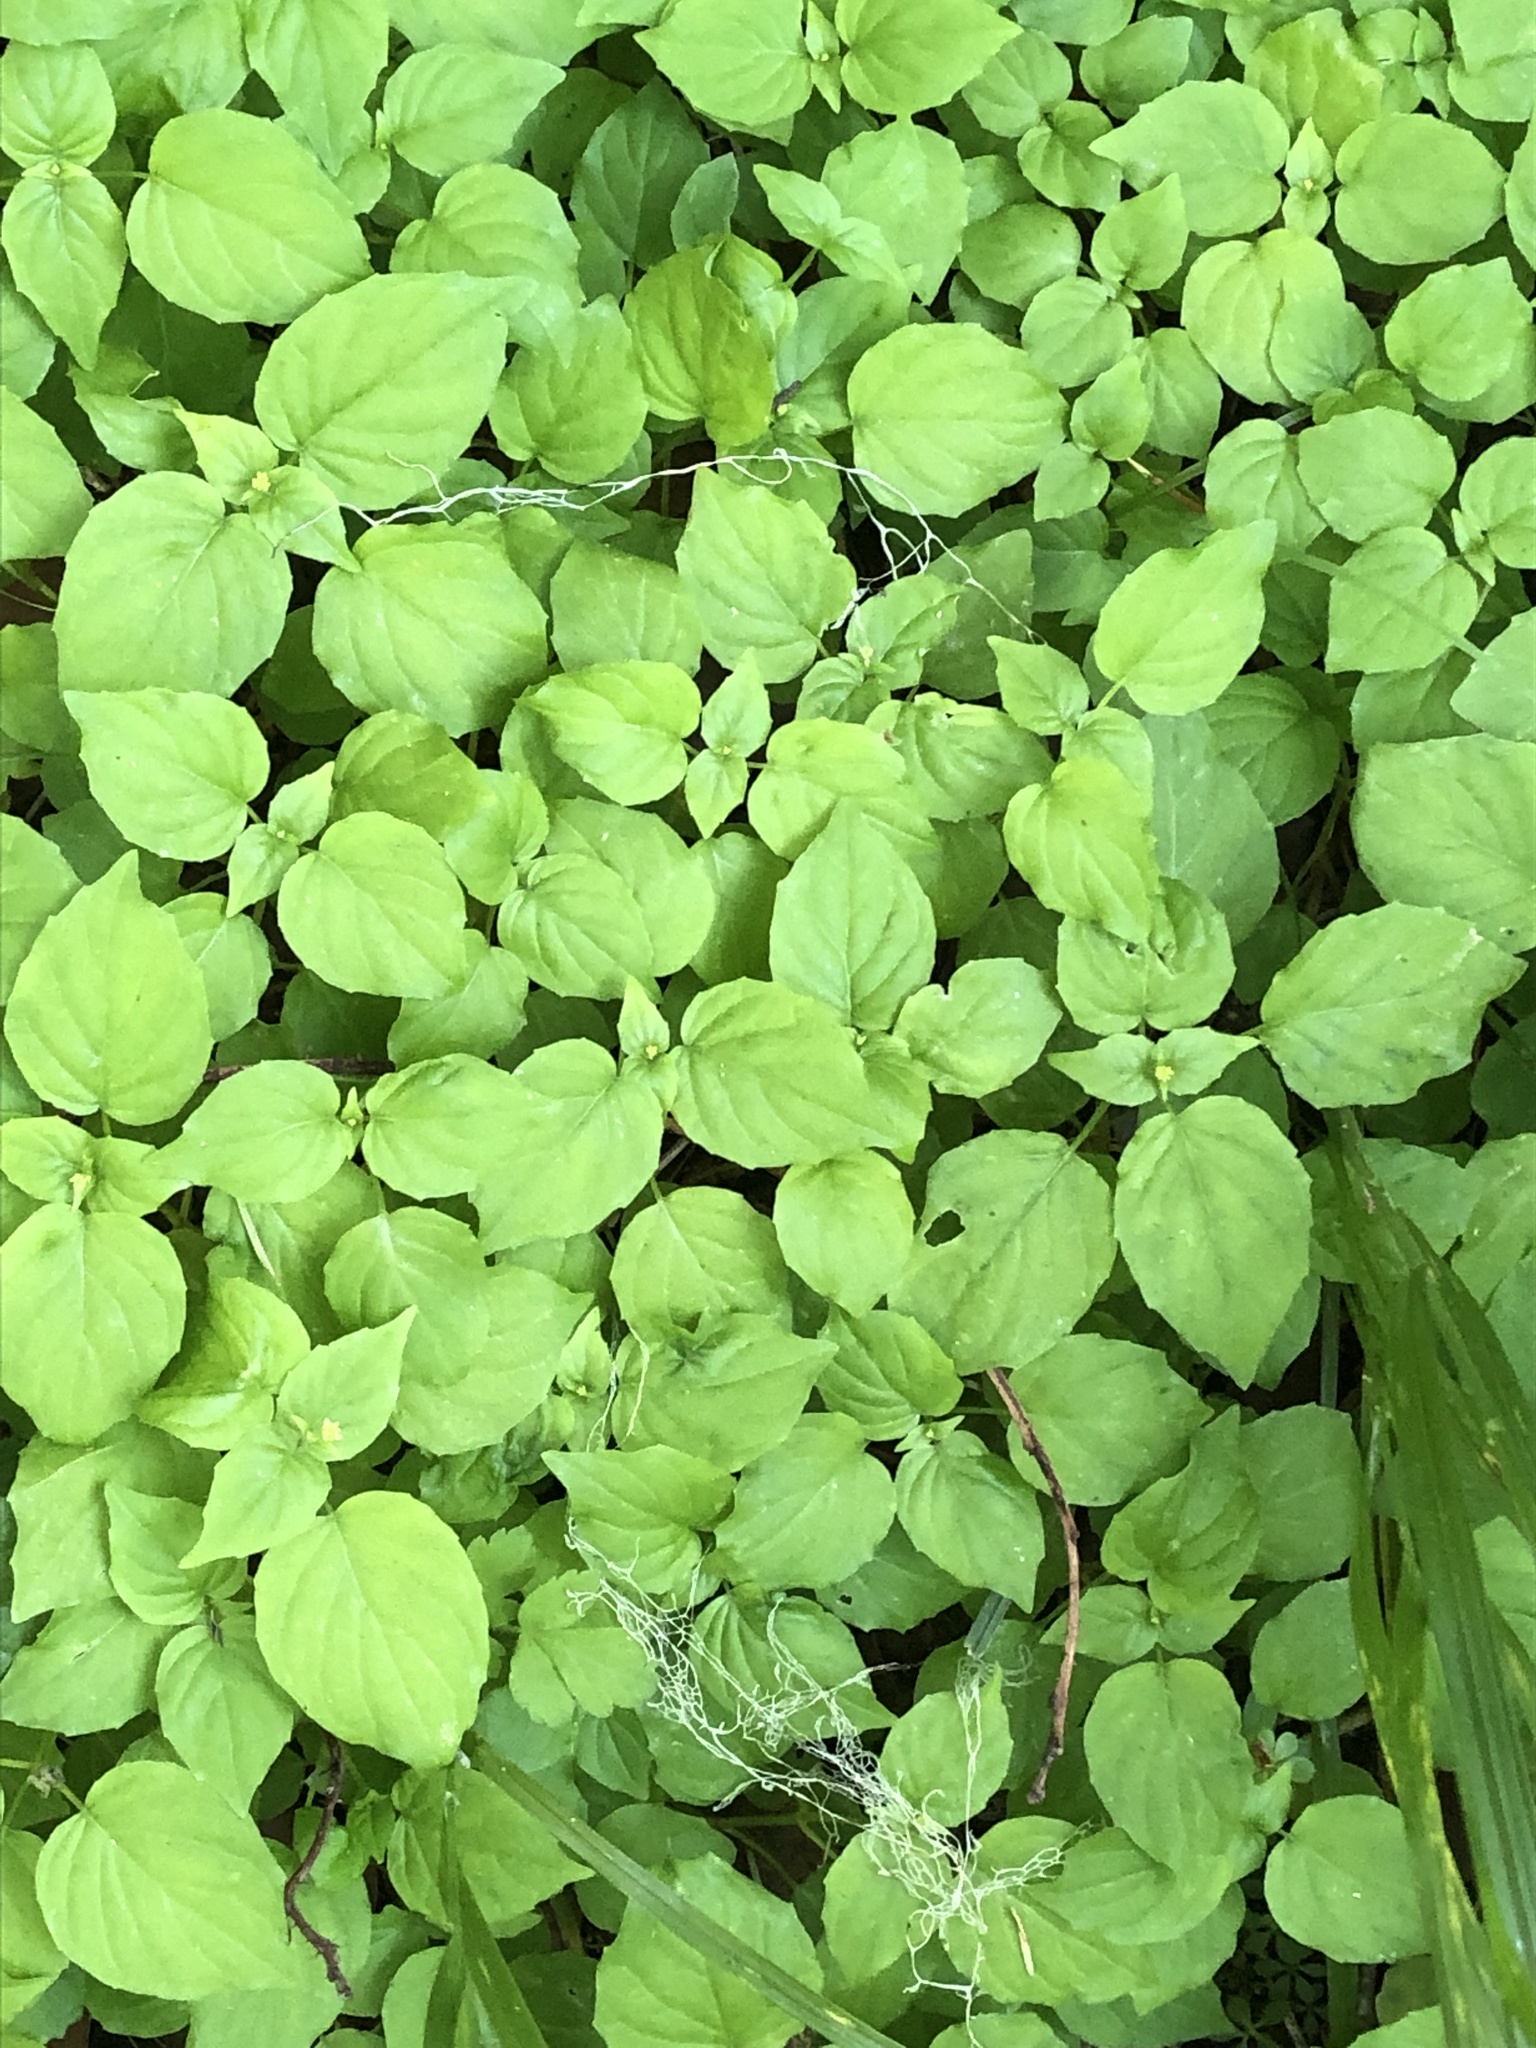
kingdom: Plantae
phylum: Tracheophyta
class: Magnoliopsida
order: Myrtales
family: Onagraceae
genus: Circaea
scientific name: Circaea alpina
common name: Alpine enchanter's-nightshade
